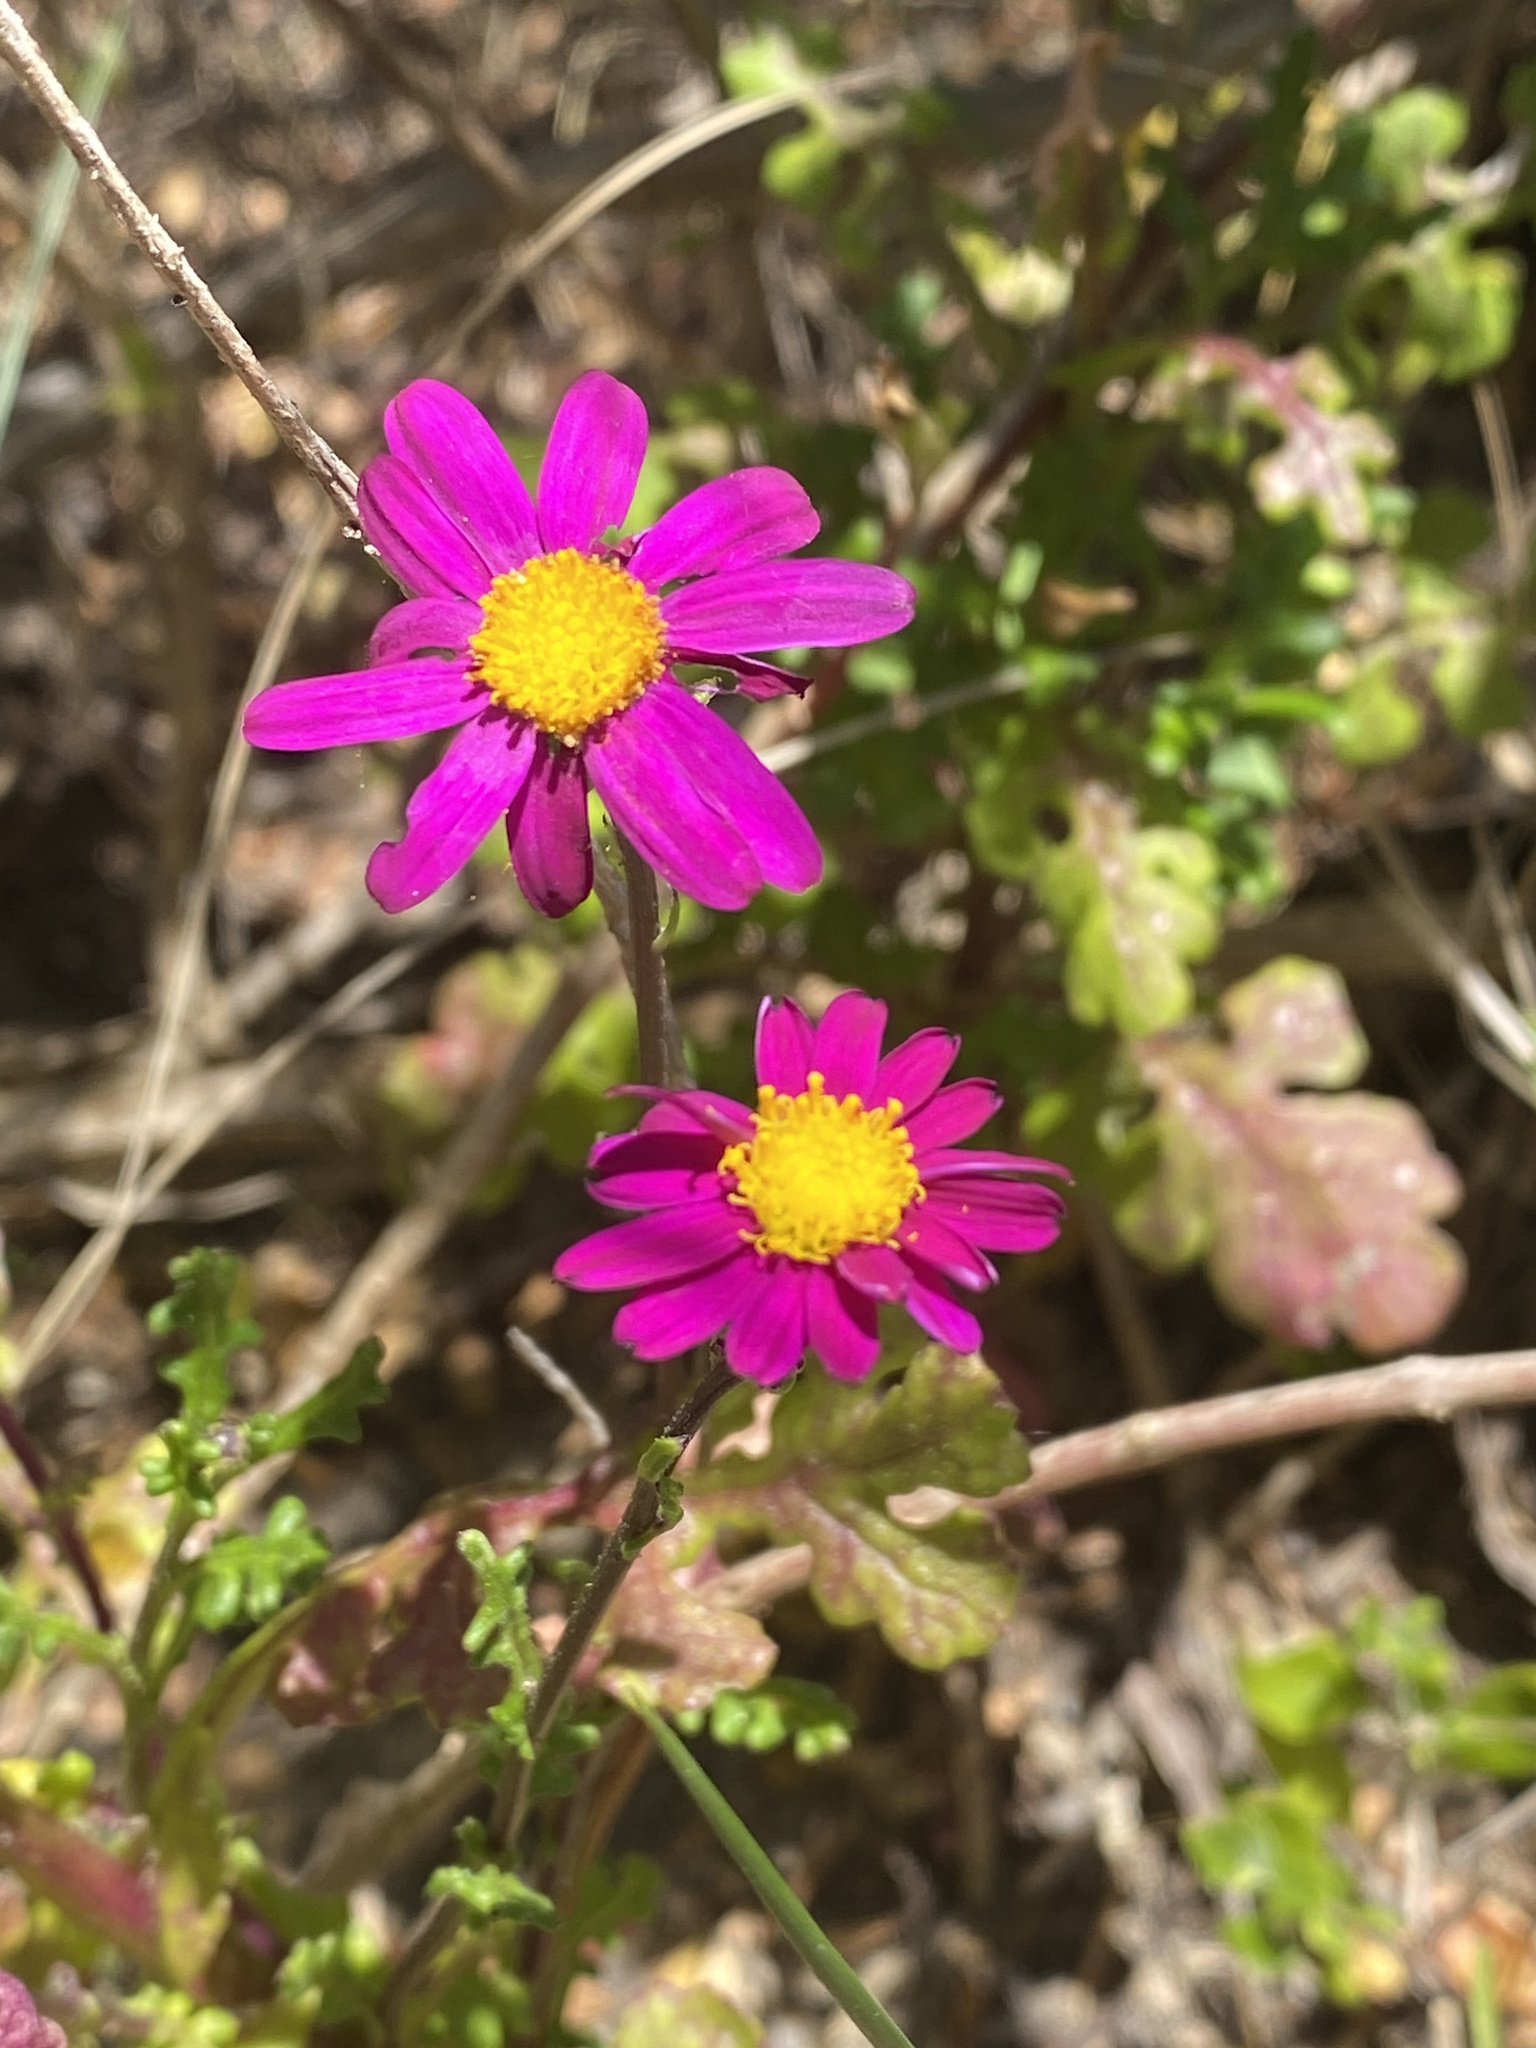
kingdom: Plantae
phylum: Tracheophyta
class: Magnoliopsida
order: Asterales
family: Asteraceae
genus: Senecio
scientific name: Senecio elegans
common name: Purple groundsel
